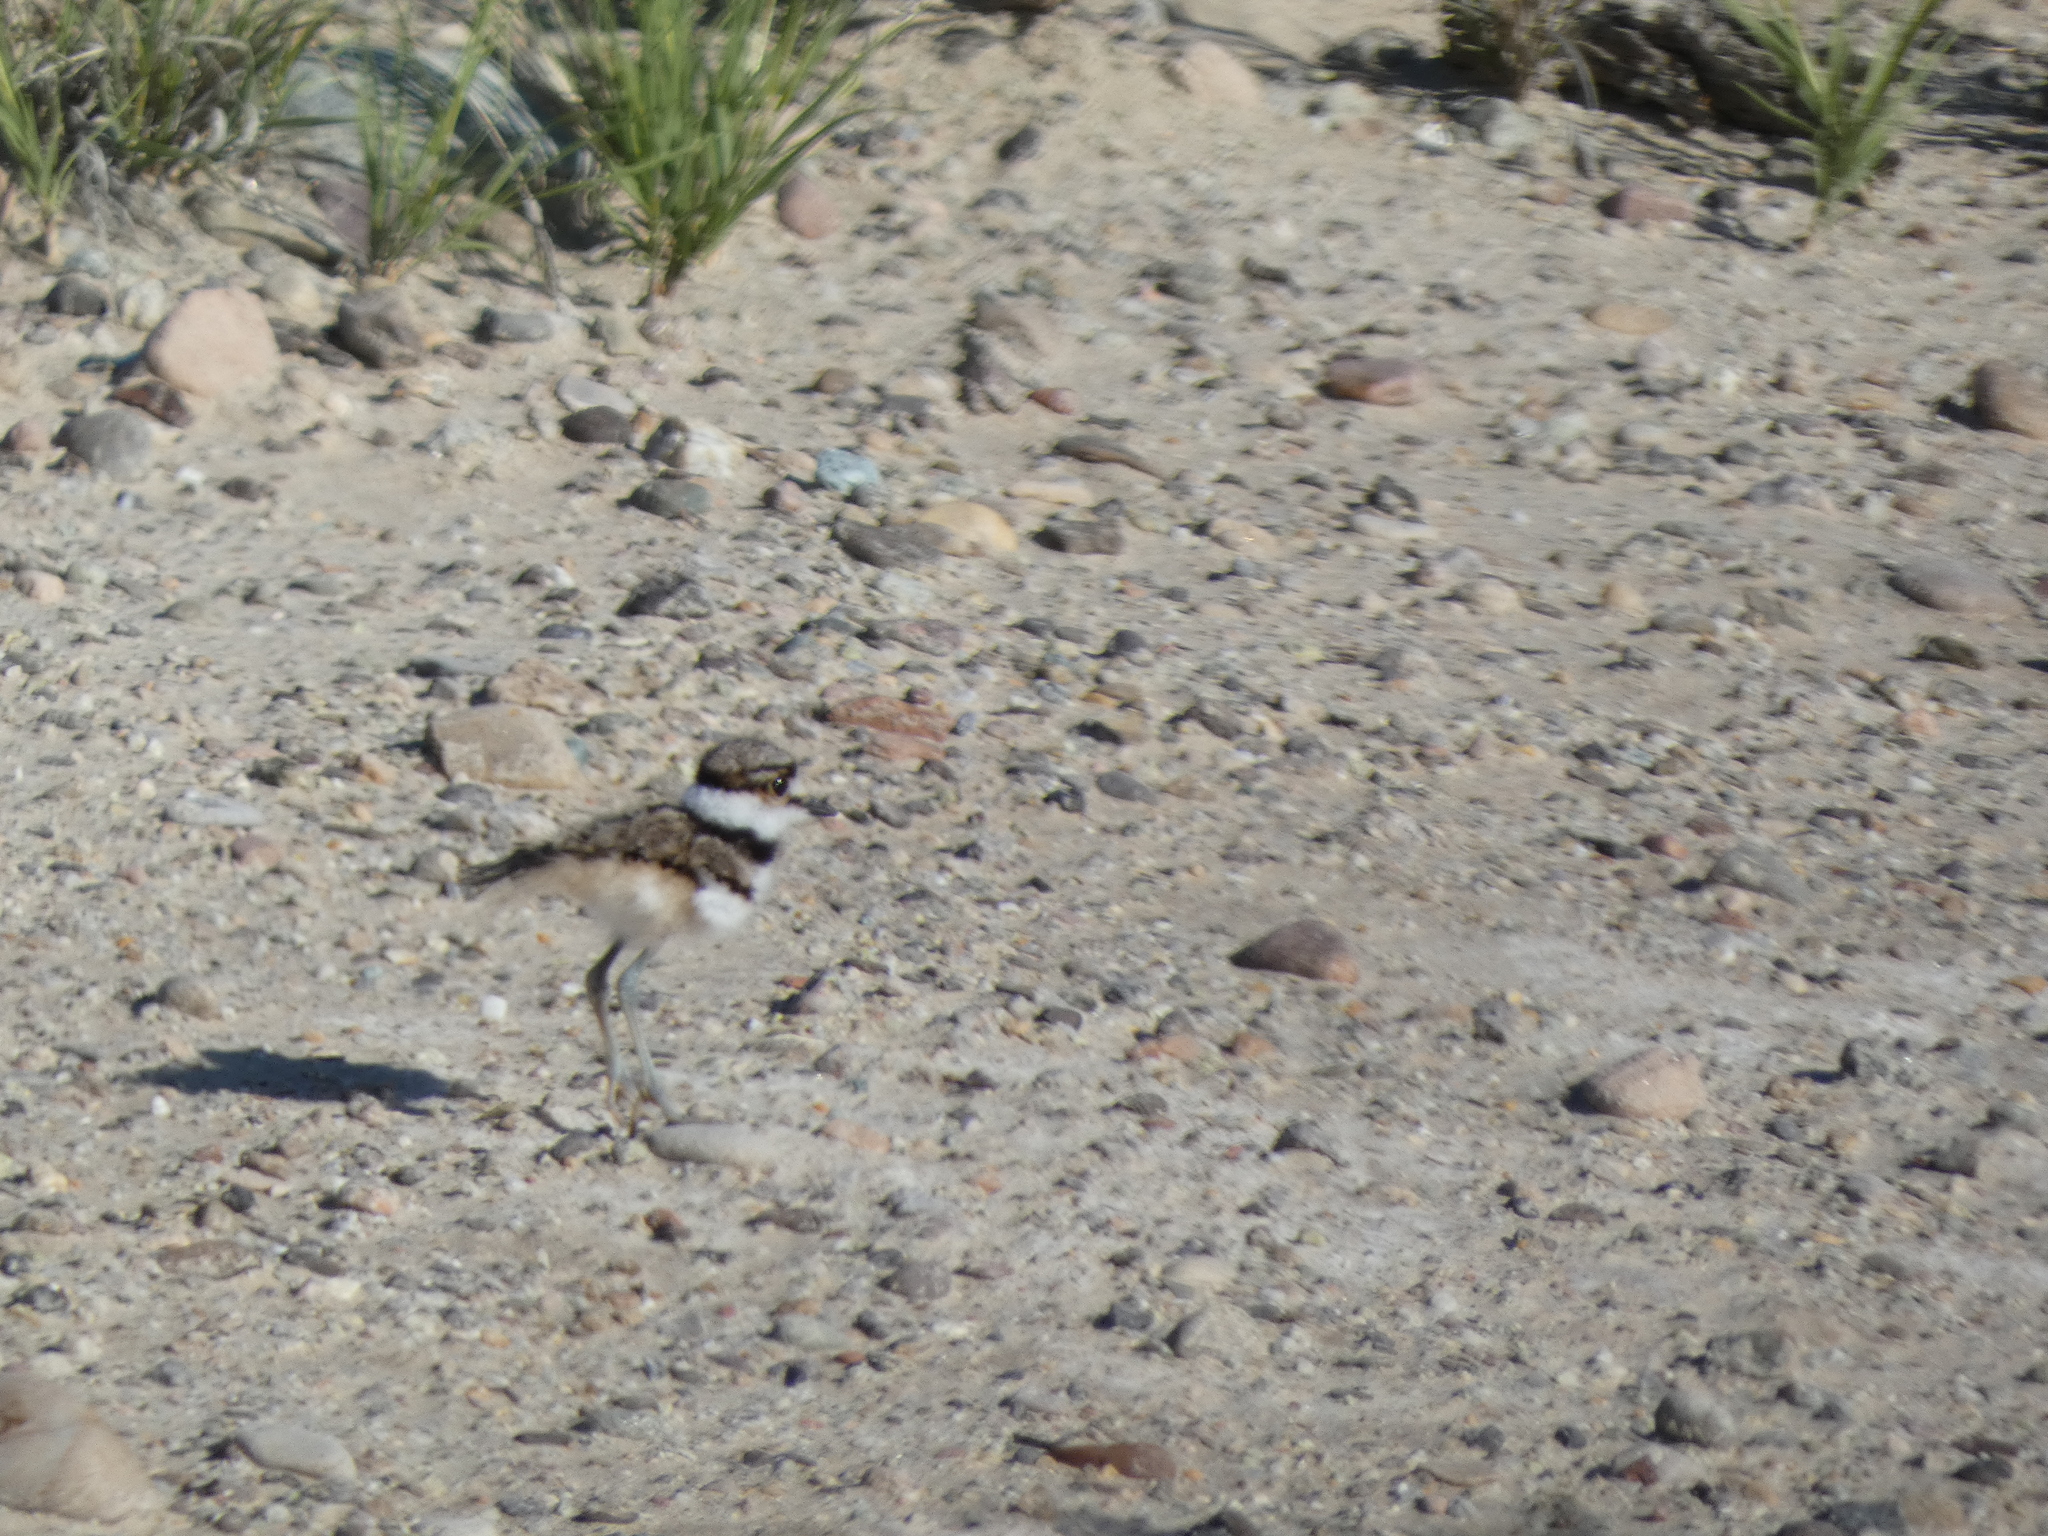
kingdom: Animalia
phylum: Chordata
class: Aves
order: Charadriiformes
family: Charadriidae
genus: Charadrius
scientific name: Charadrius vociferus
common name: Killdeer
